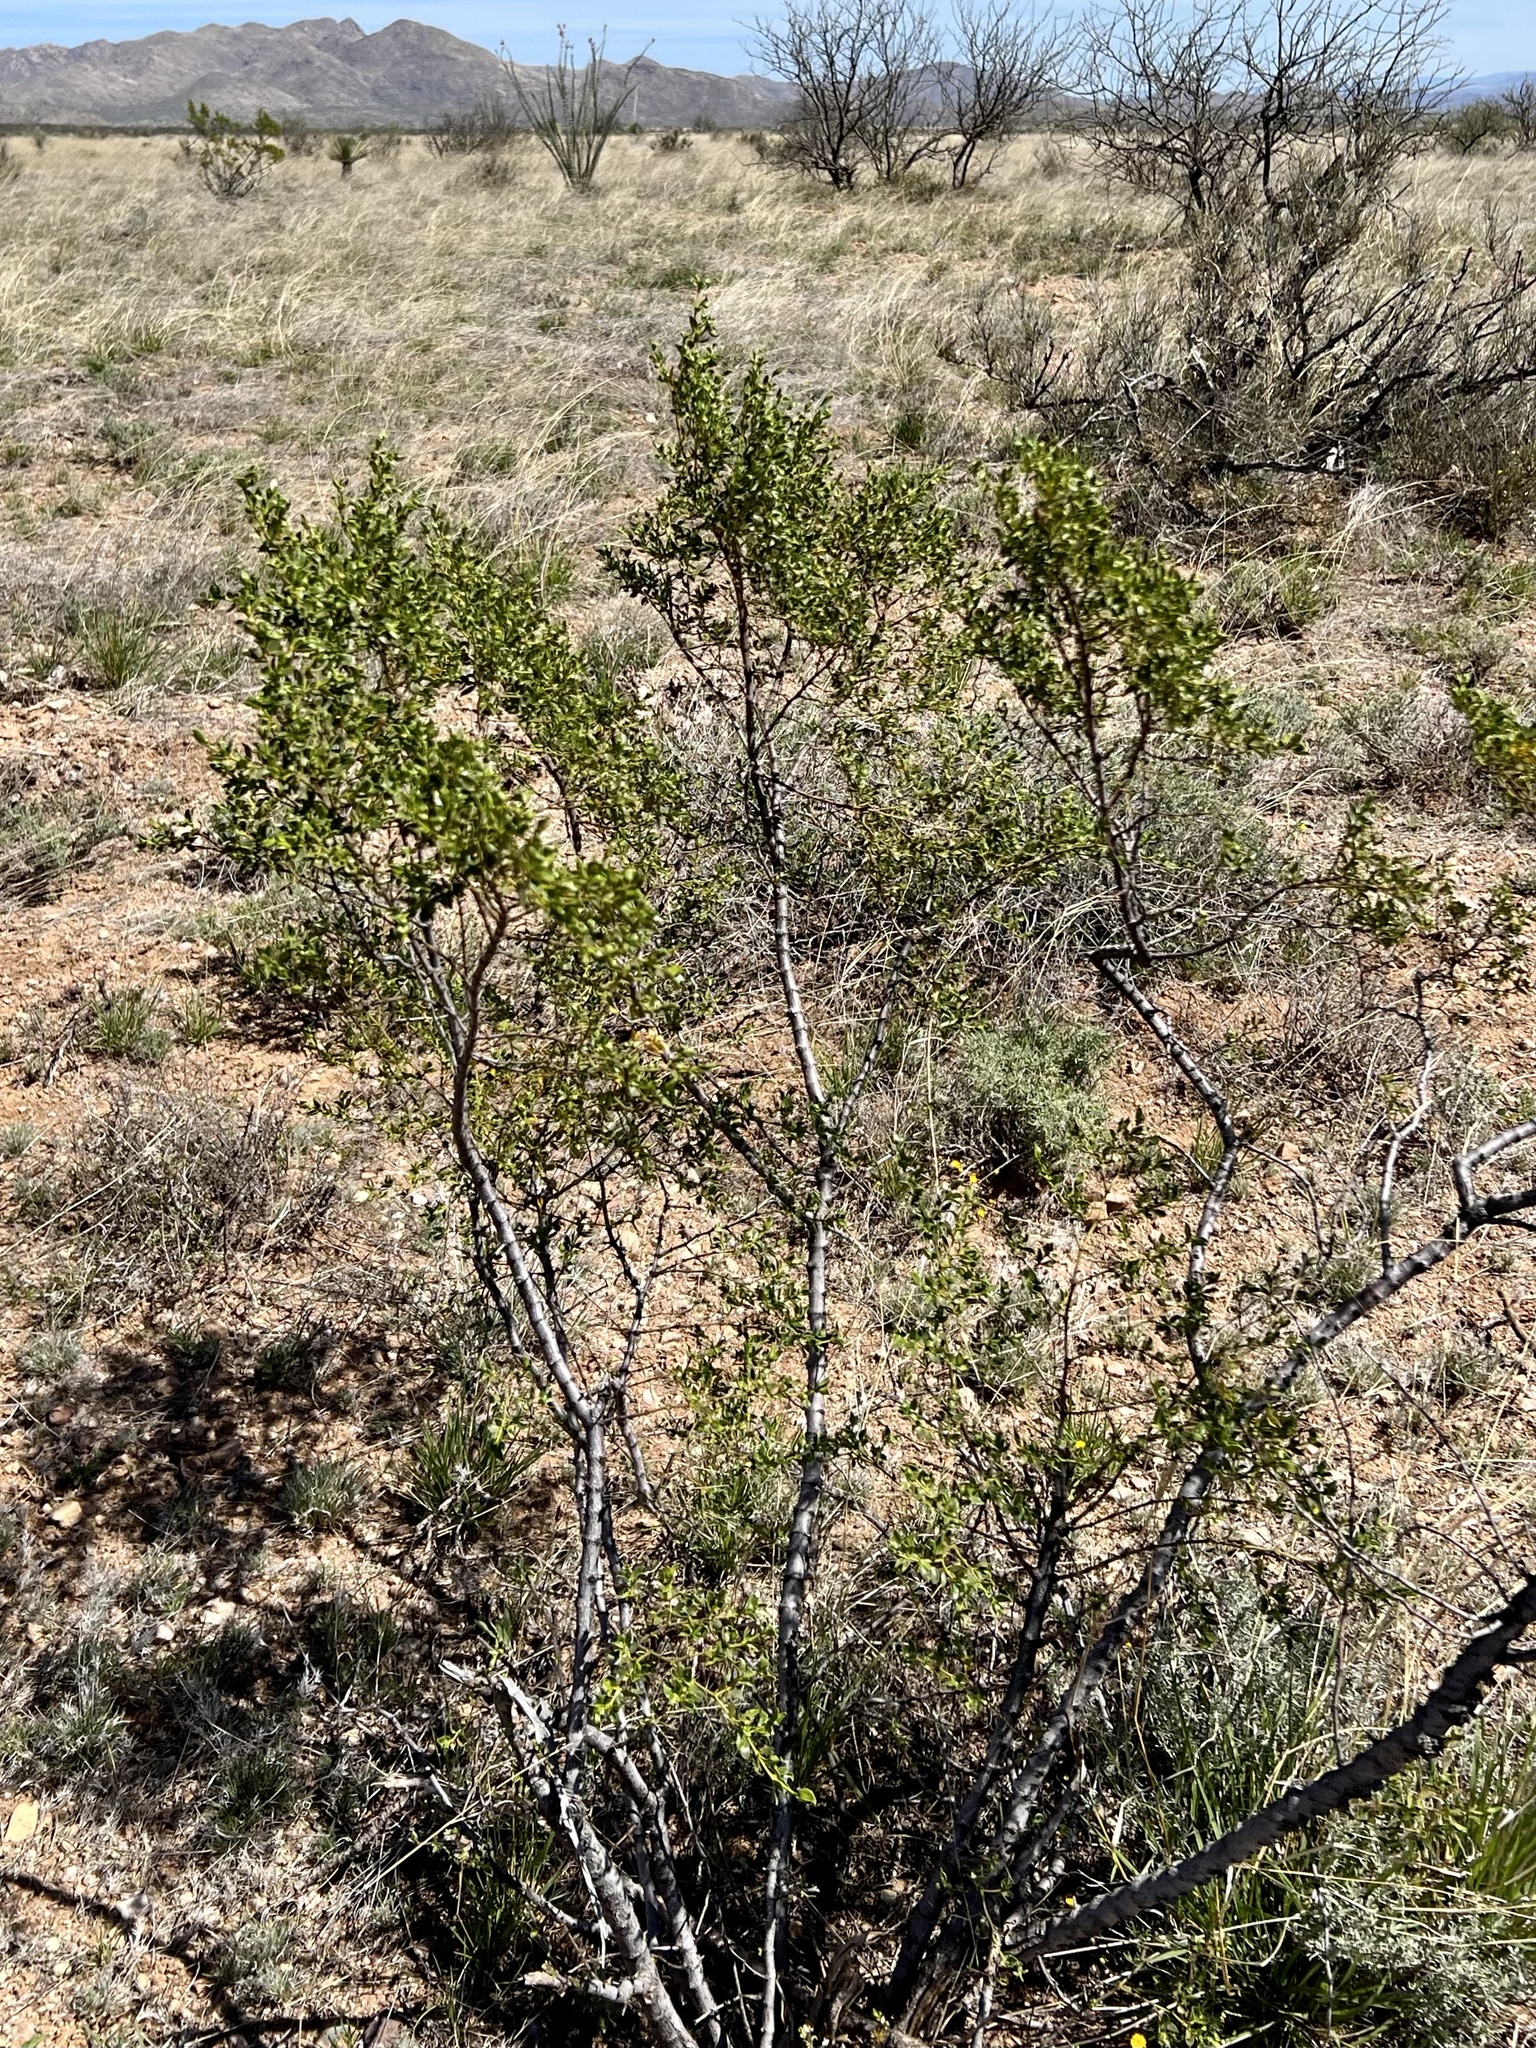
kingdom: Plantae
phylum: Tracheophyta
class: Magnoliopsida
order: Zygophyllales
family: Zygophyllaceae
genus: Larrea
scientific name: Larrea tridentata
